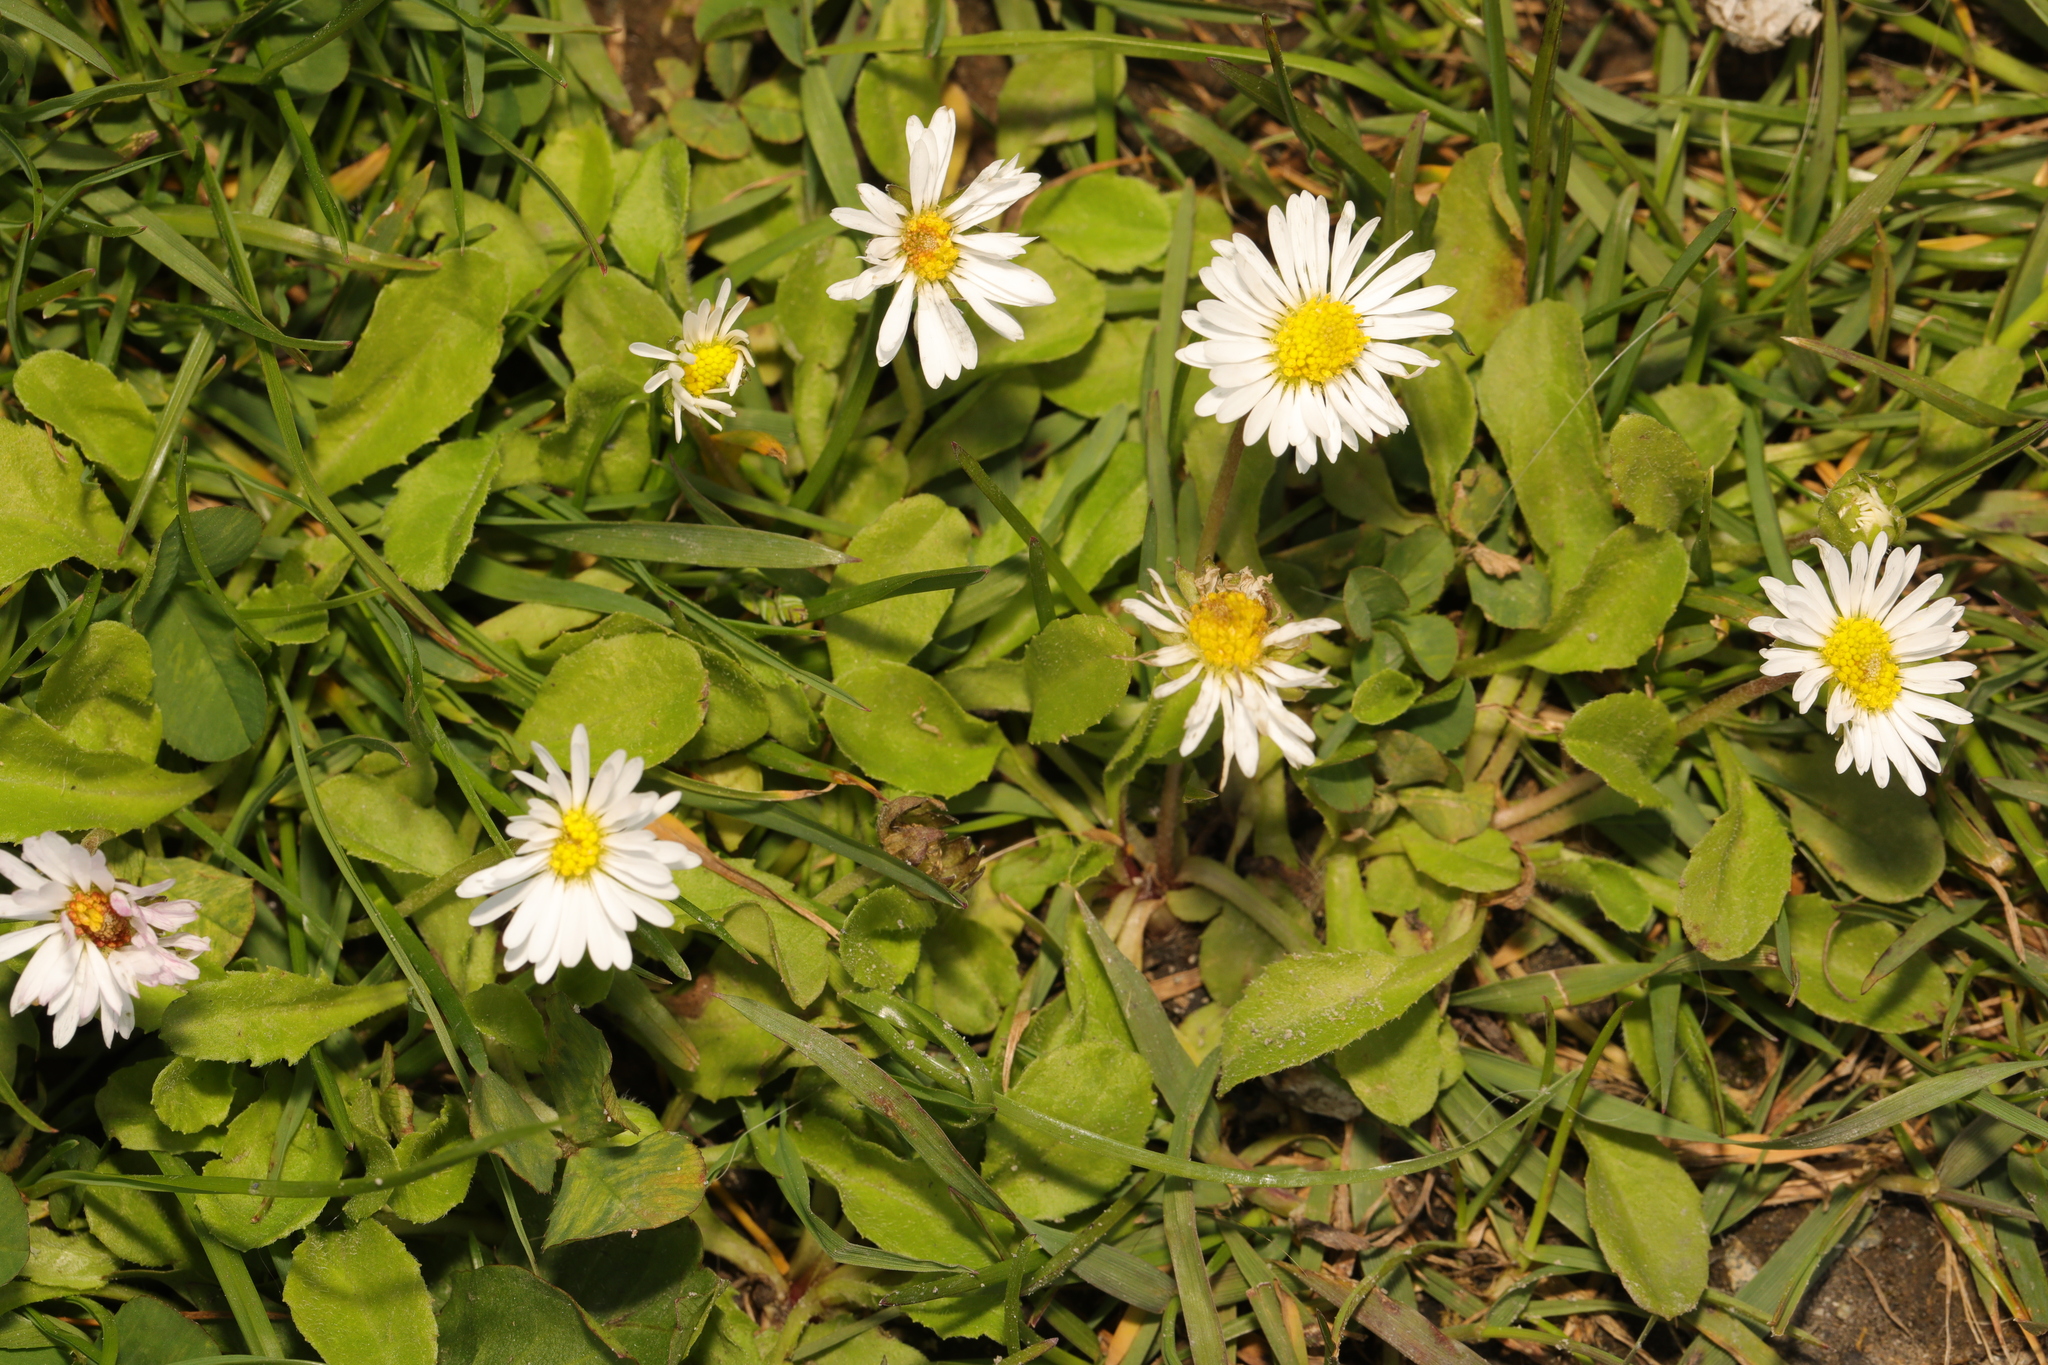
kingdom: Plantae
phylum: Tracheophyta
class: Magnoliopsida
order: Asterales
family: Asteraceae
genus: Bellis
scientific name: Bellis perennis
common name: Lawndaisy
